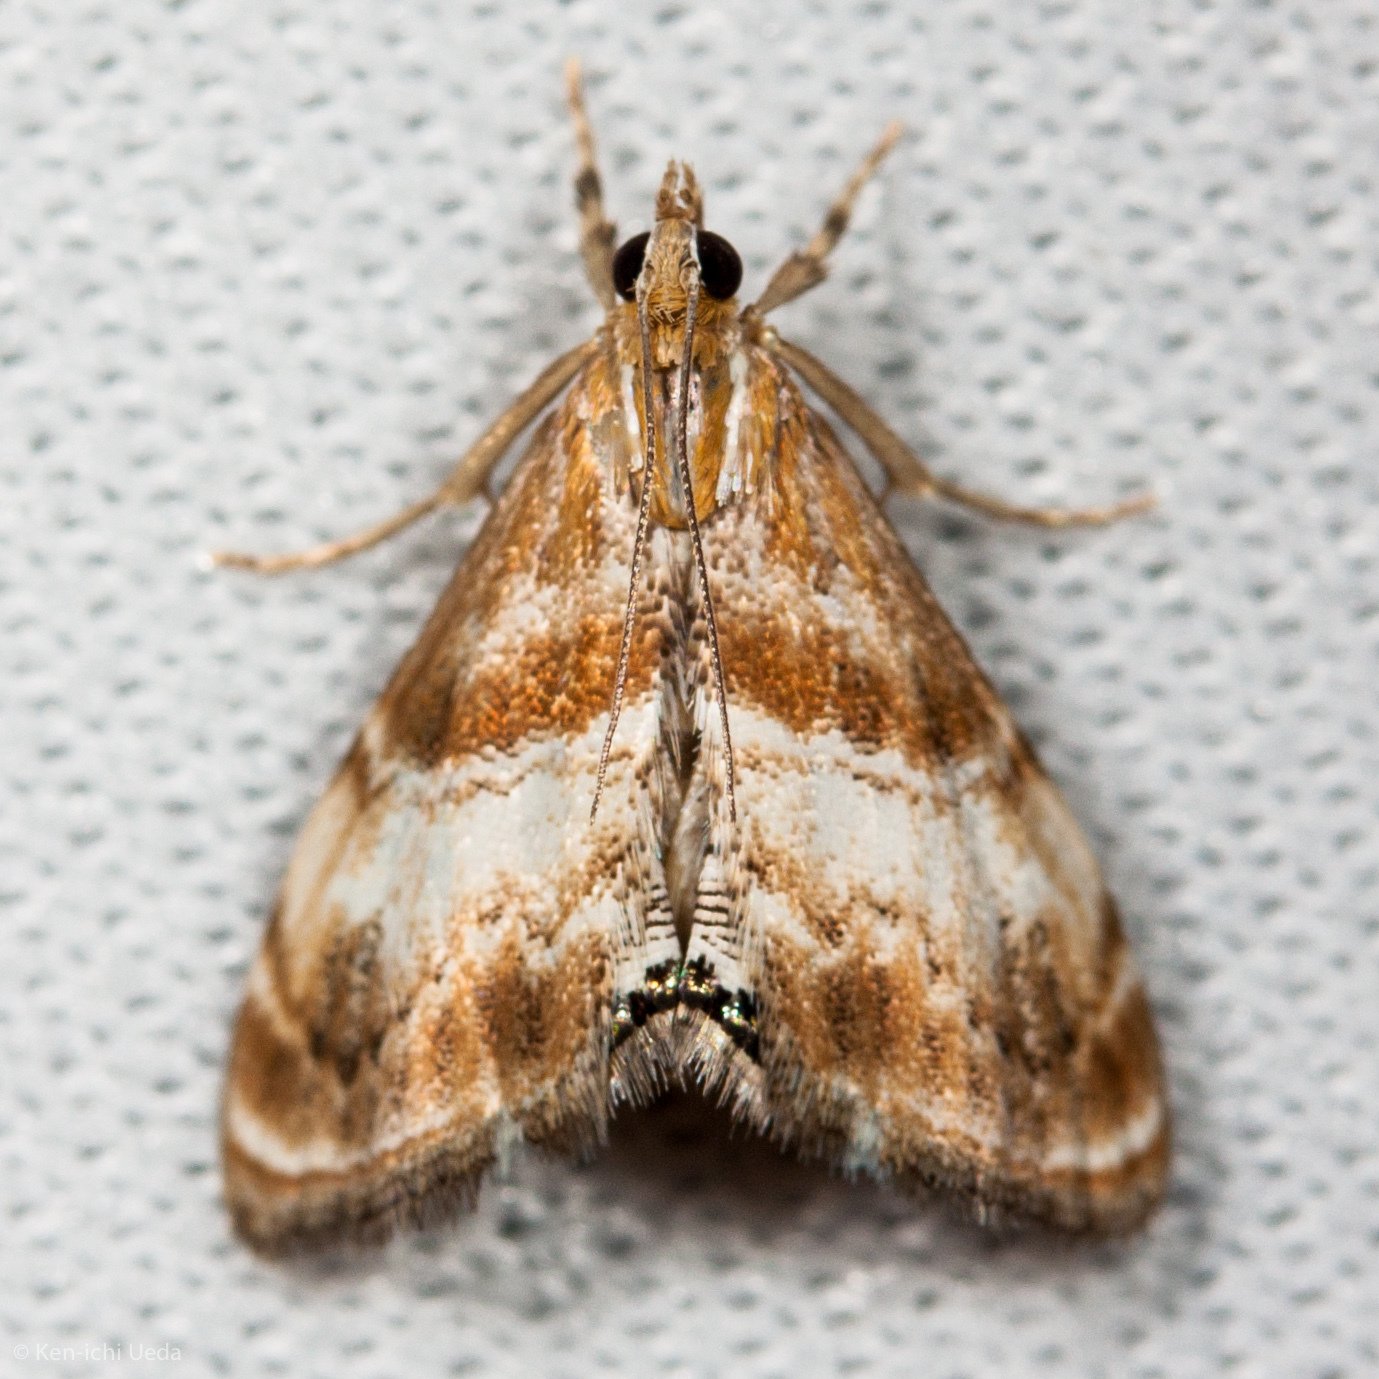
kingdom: Animalia
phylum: Arthropoda
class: Insecta
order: Lepidoptera
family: Crambidae
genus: Dicymolomia
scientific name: Dicymolomia metalliferalis
